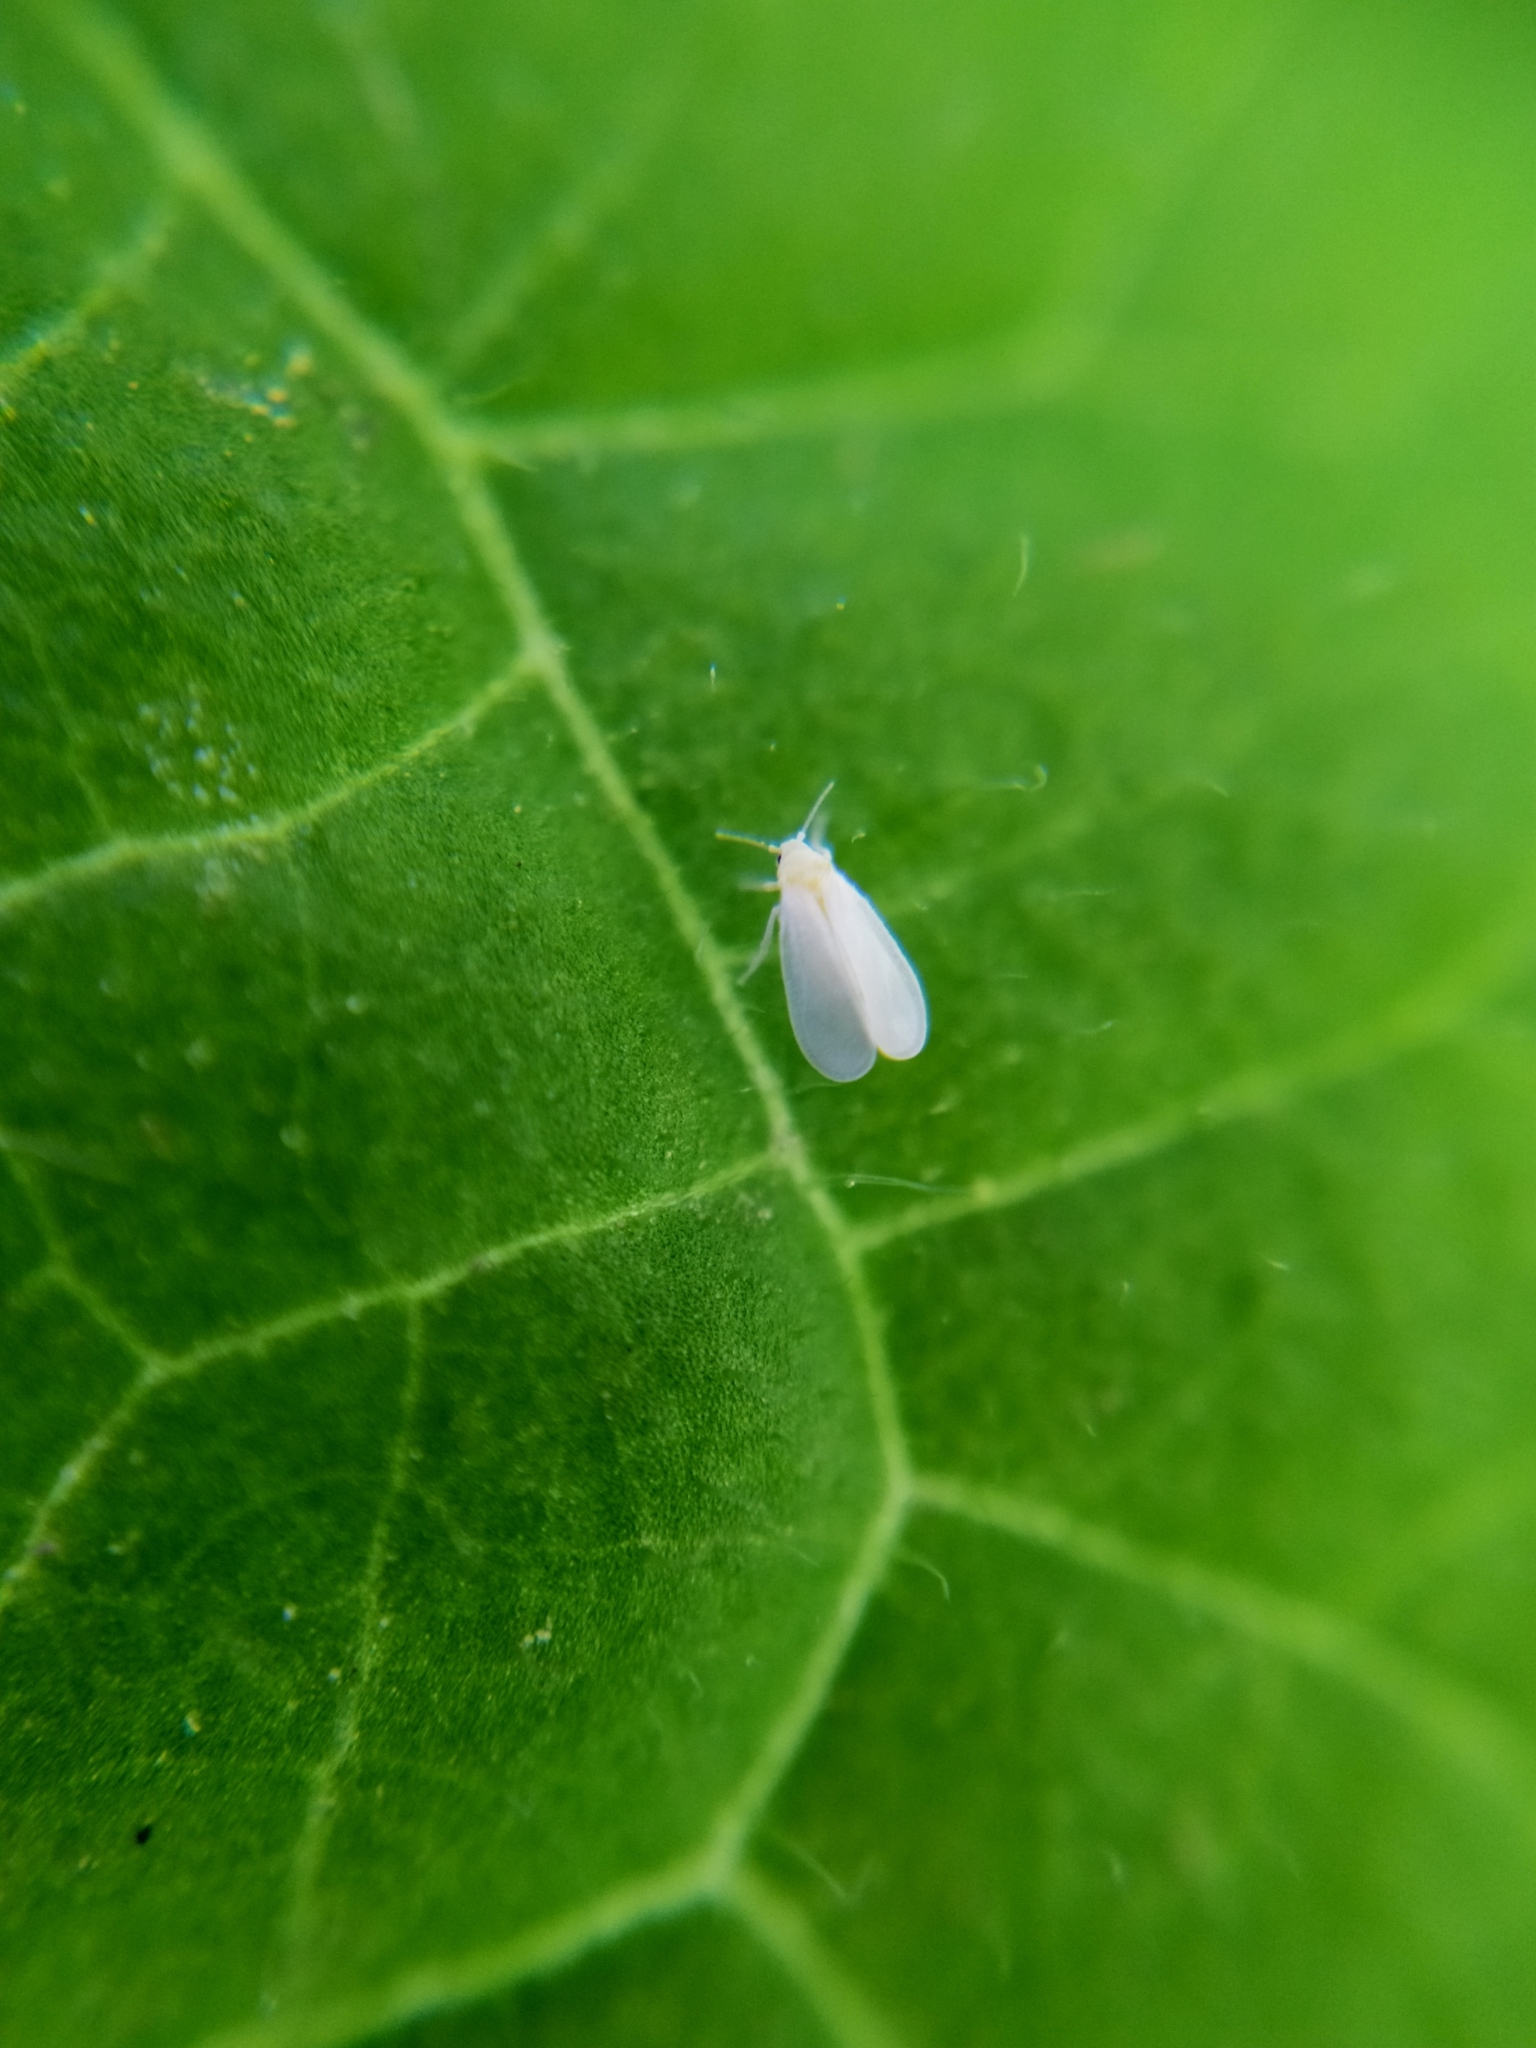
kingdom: Animalia
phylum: Arthropoda
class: Insecta
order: Hemiptera
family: Aleyrodidae
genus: Trialeurodes
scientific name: Trialeurodes vaporariorum
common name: Greenhouse white fly
